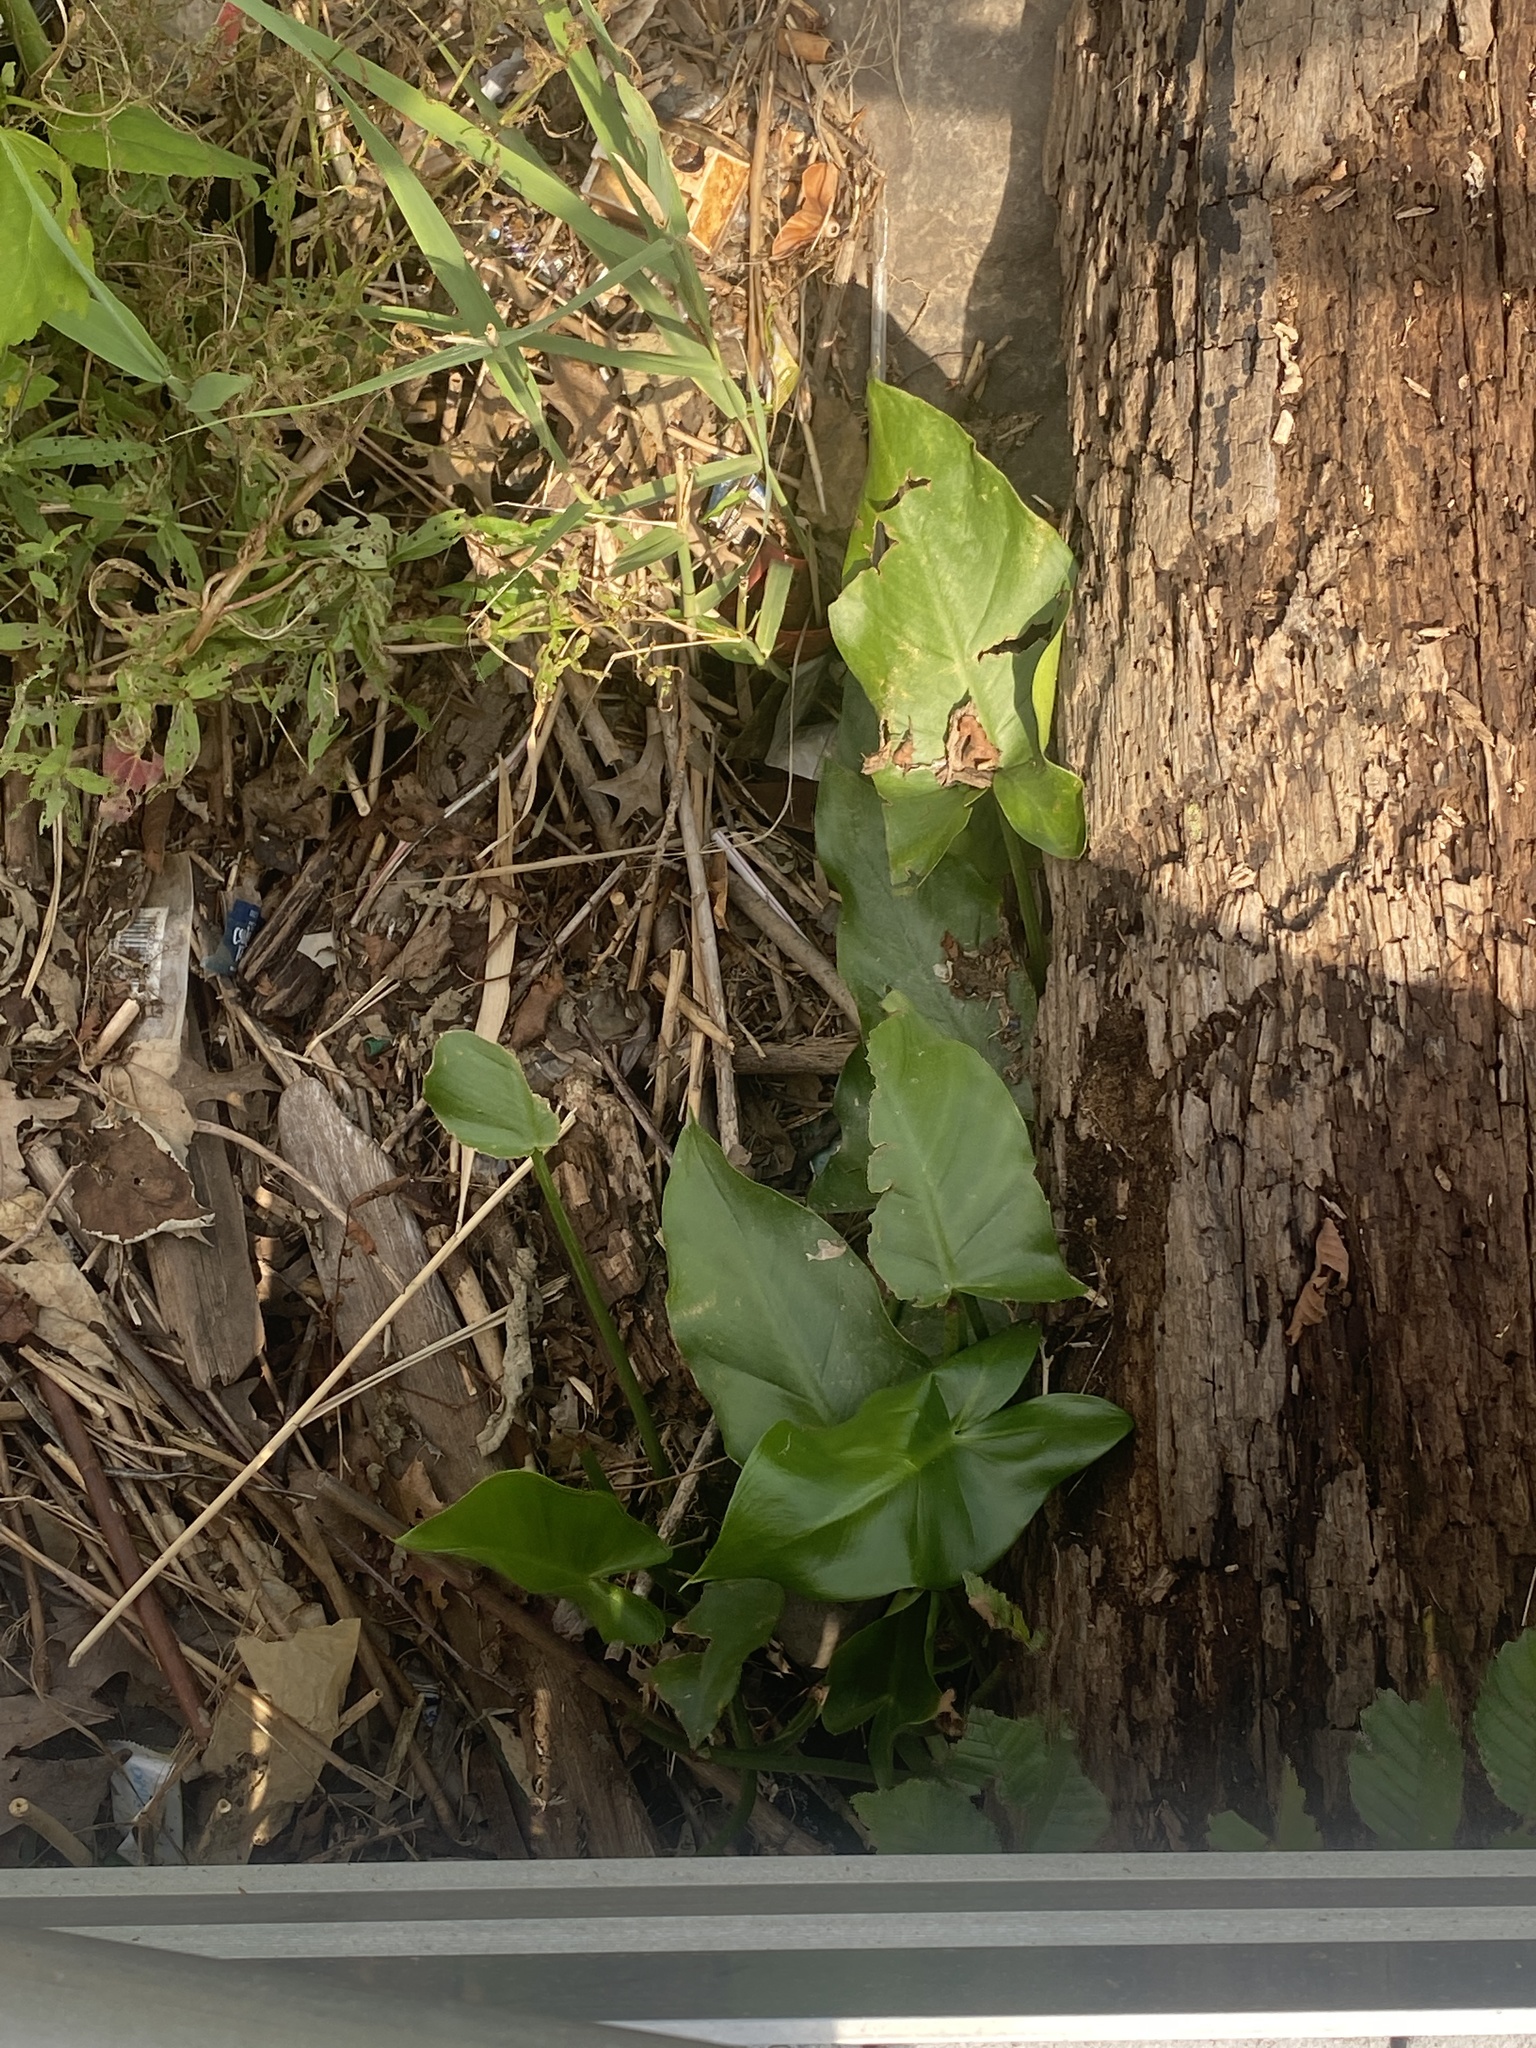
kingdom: Plantae
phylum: Tracheophyta
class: Liliopsida
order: Alismatales
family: Araceae
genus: Peltandra
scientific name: Peltandra virginica
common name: Arrow arum
